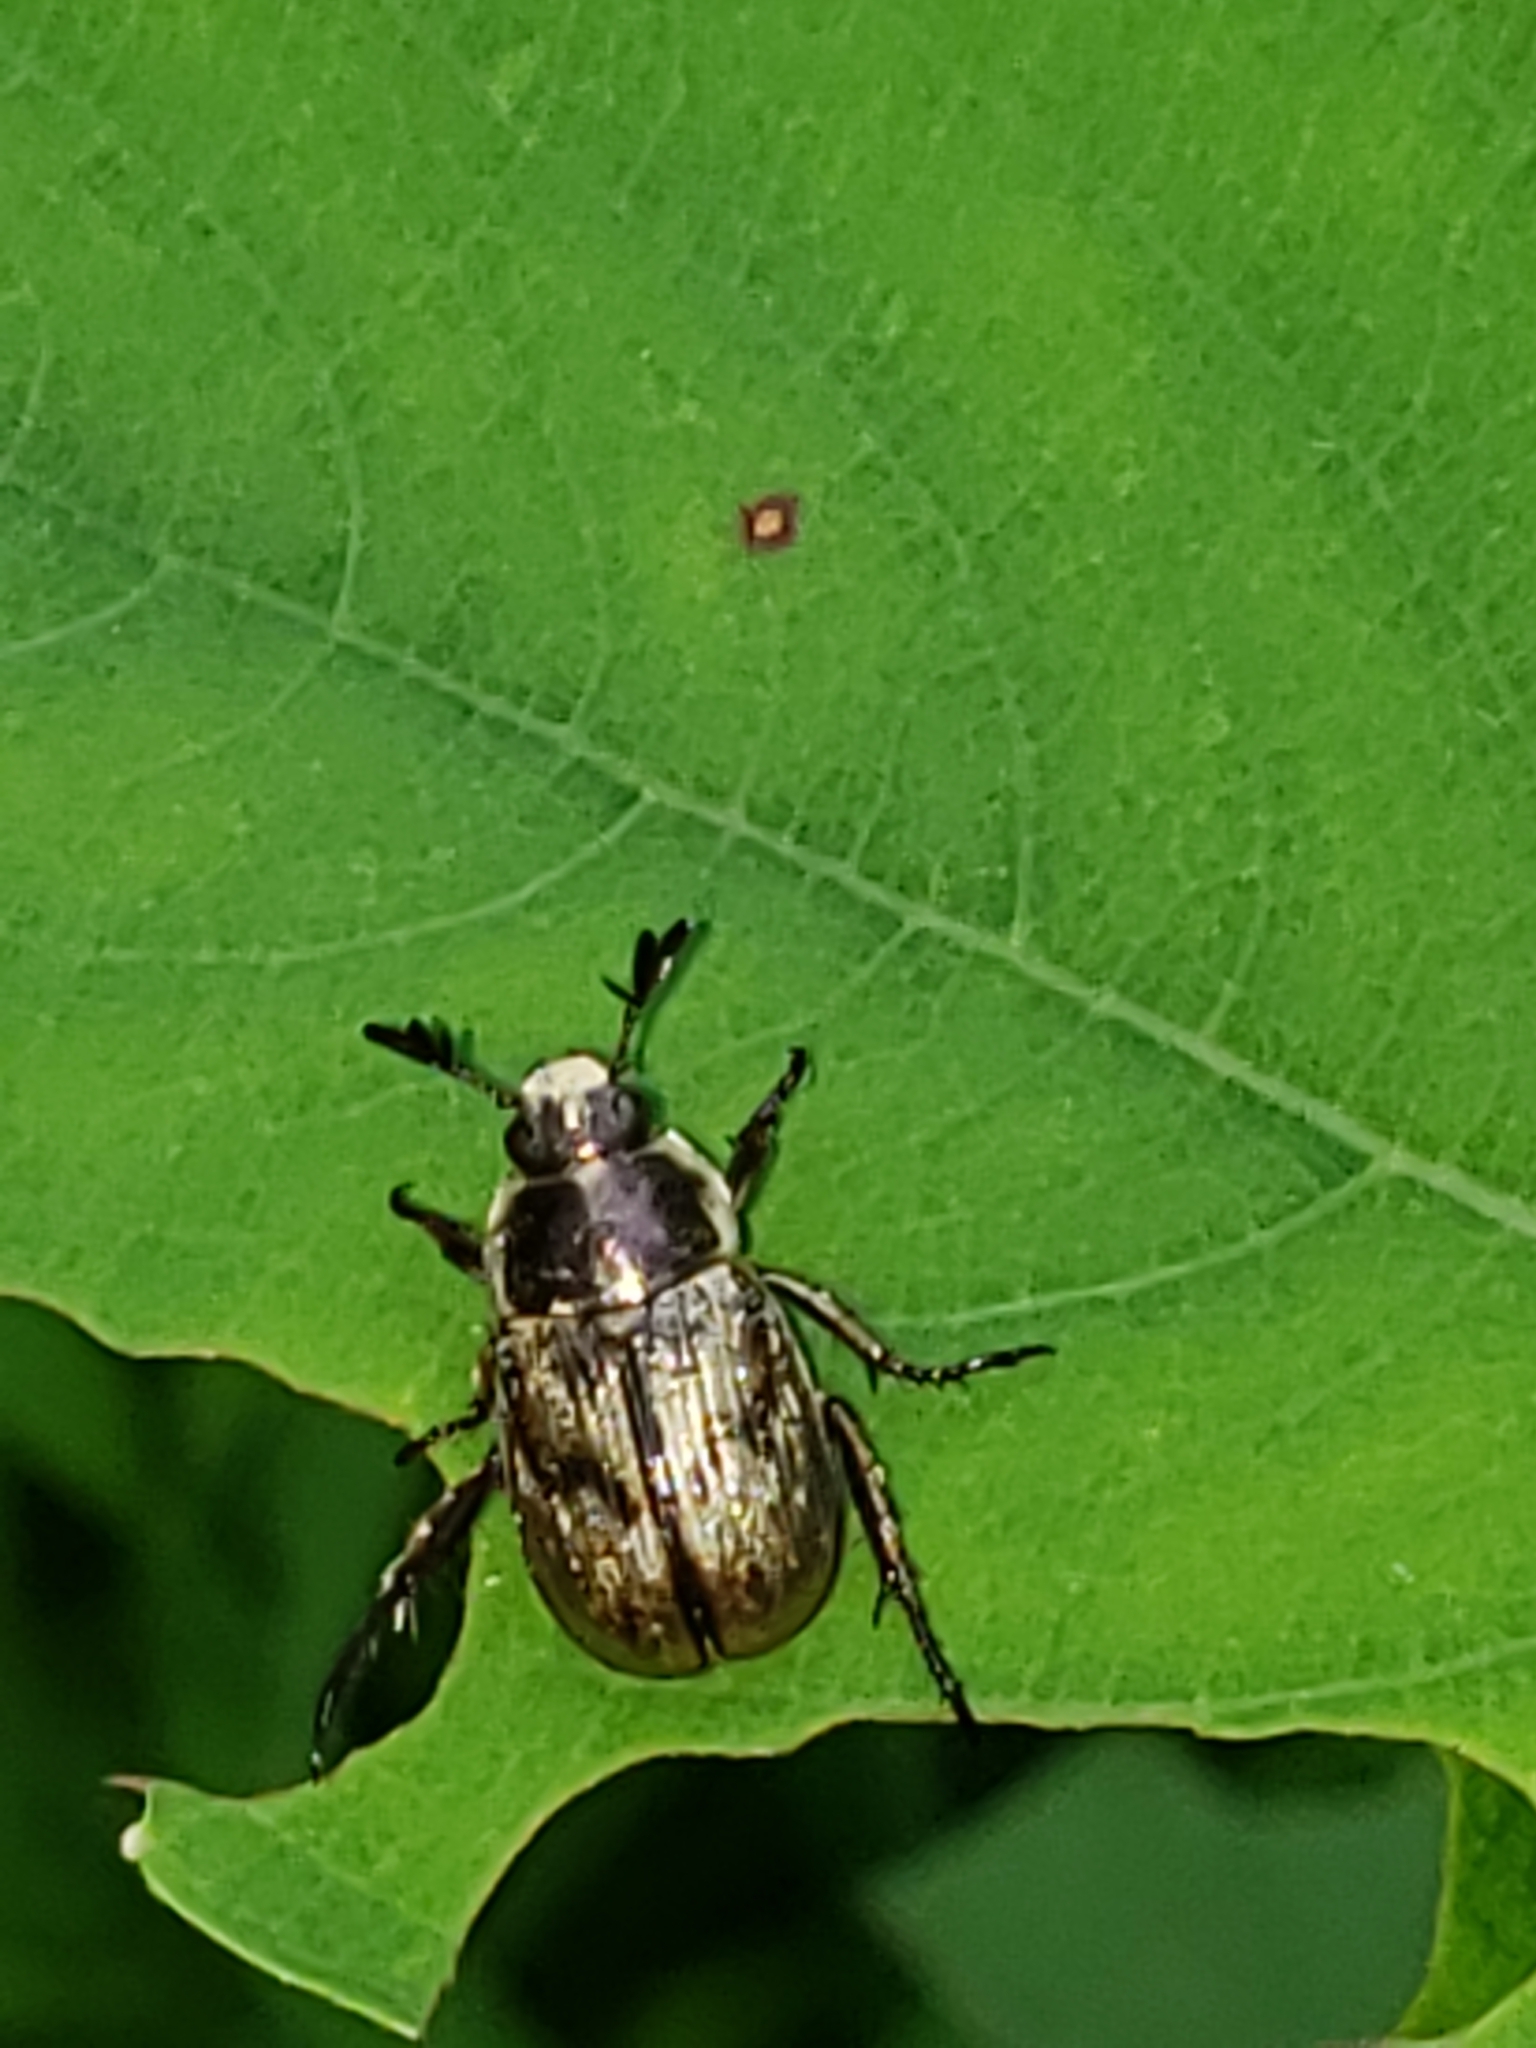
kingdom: Animalia
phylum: Arthropoda
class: Insecta
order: Coleoptera
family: Scarabaeidae
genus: Exomala
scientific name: Exomala orientalis
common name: Oriental beetle
